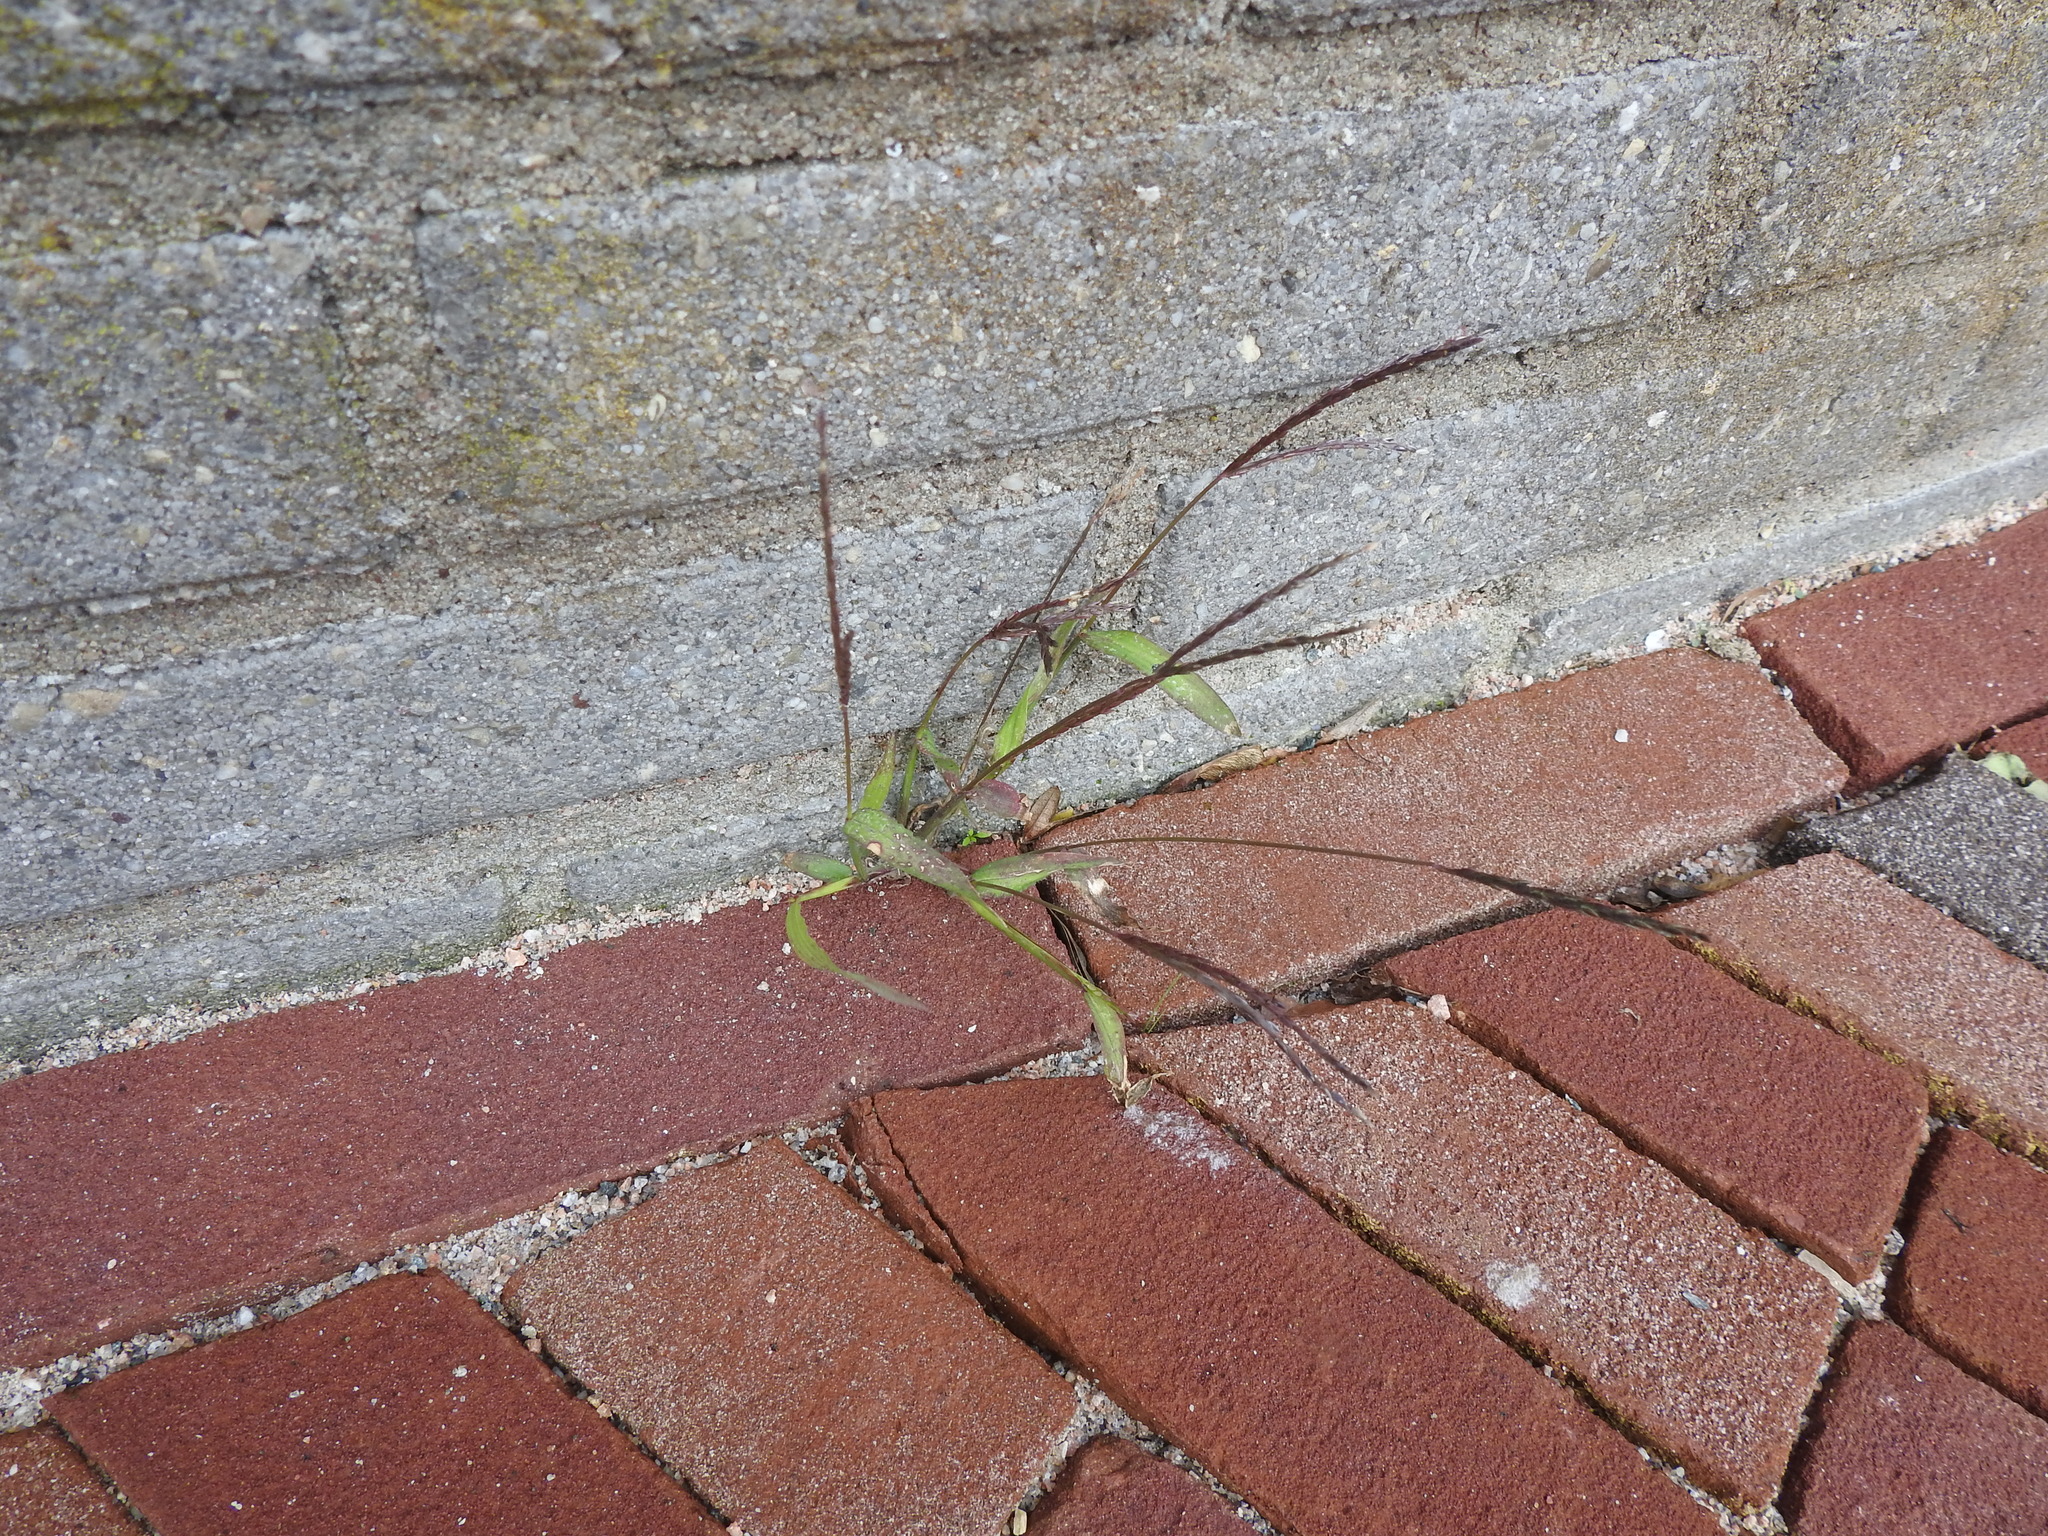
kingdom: Plantae
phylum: Tracheophyta
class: Liliopsida
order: Poales
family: Poaceae
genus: Digitaria
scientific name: Digitaria sanguinalis
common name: Hairy crabgrass
